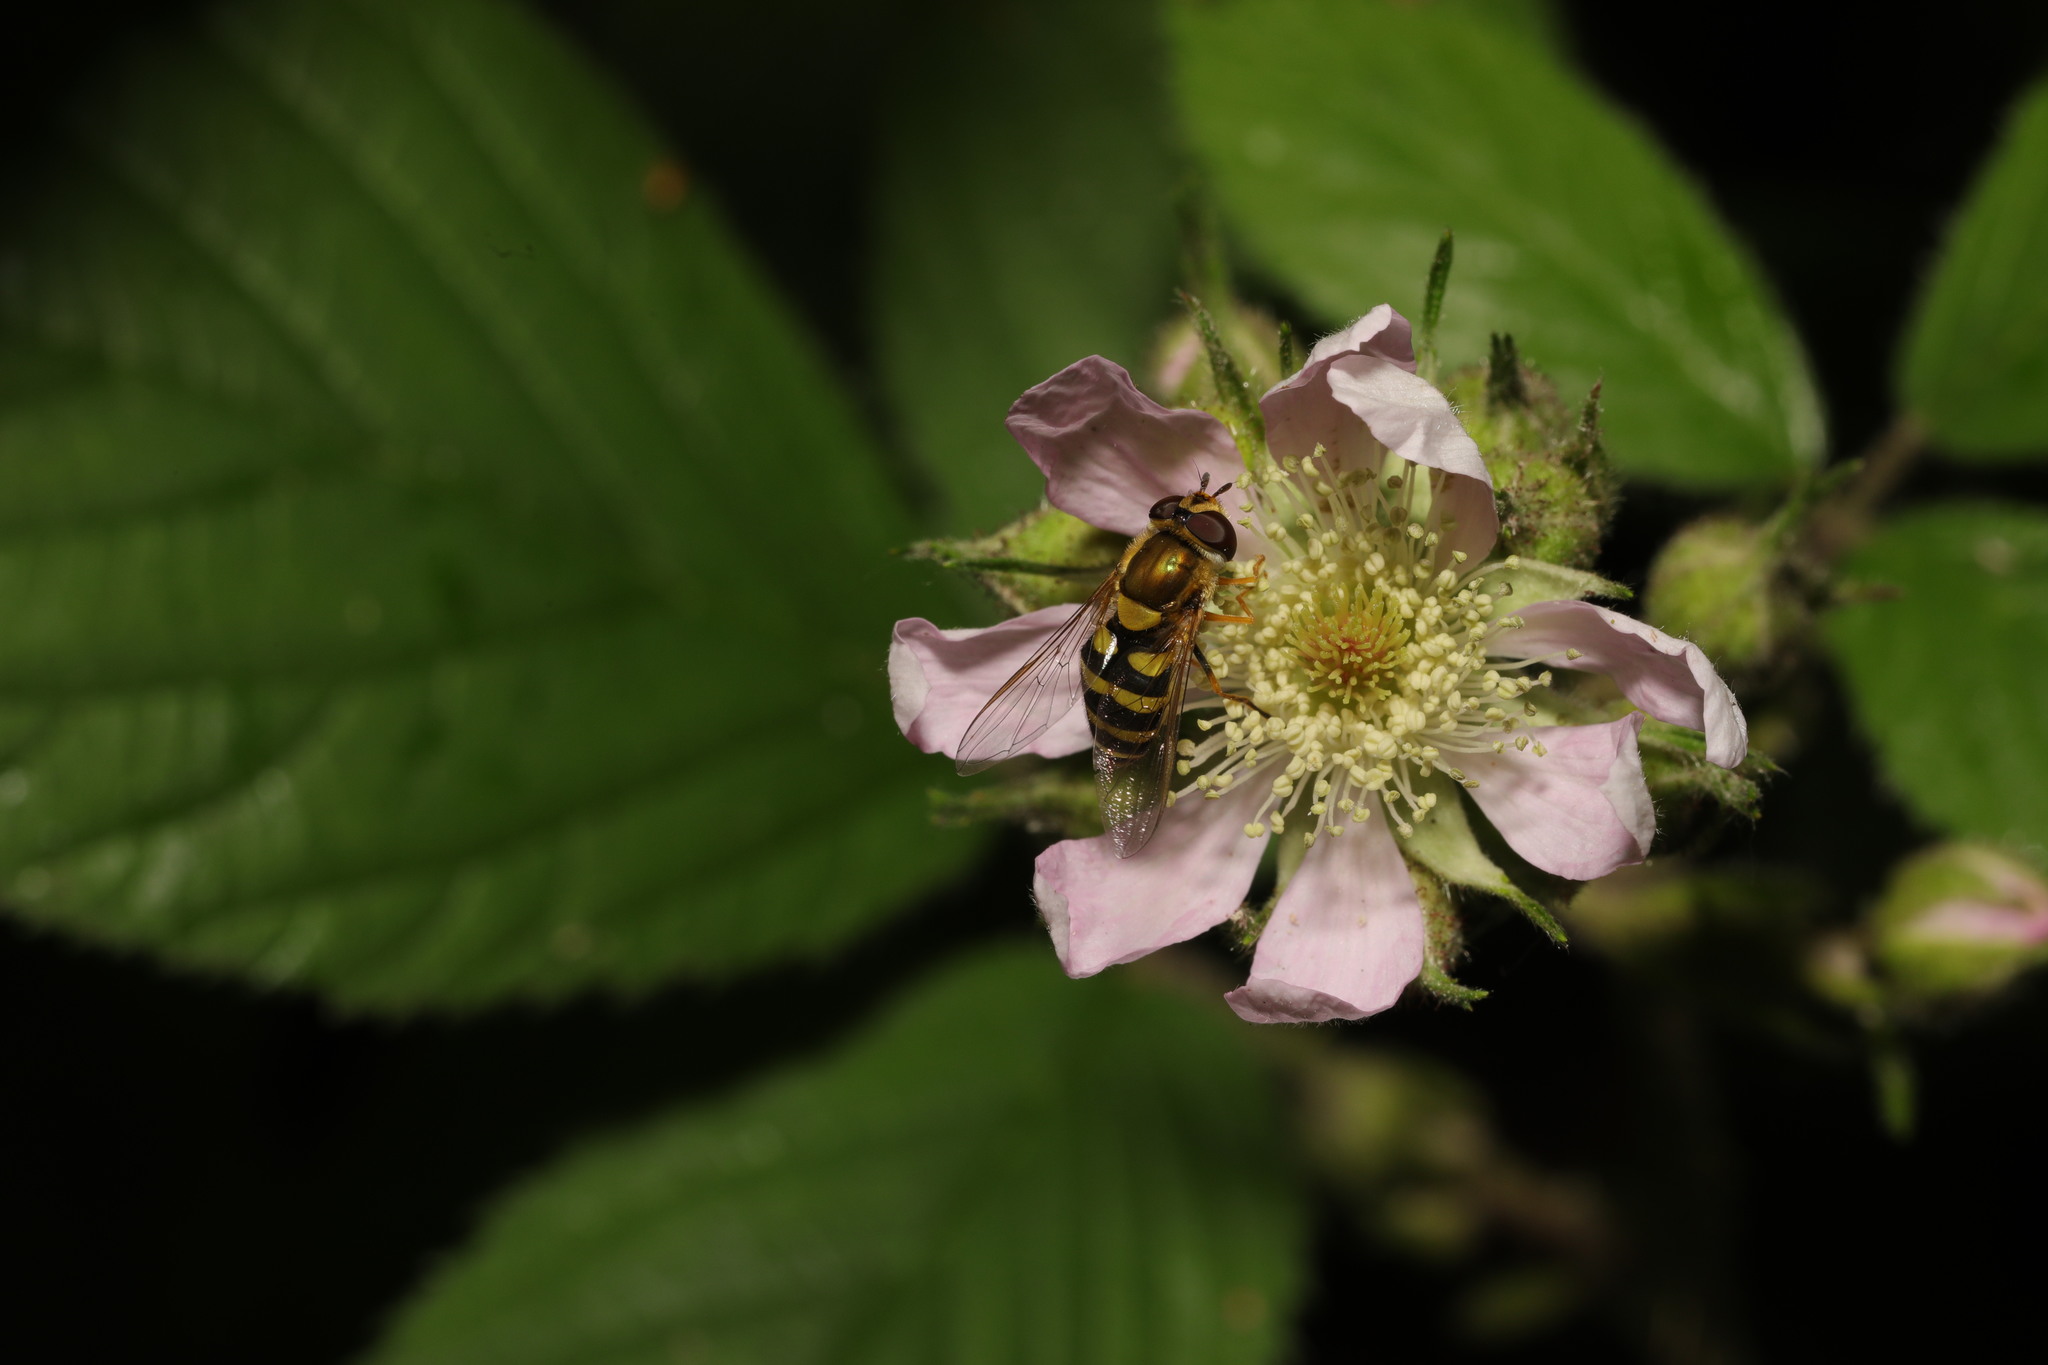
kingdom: Animalia
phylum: Arthropoda
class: Insecta
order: Diptera
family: Syrphidae
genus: Syrphus
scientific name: Syrphus
